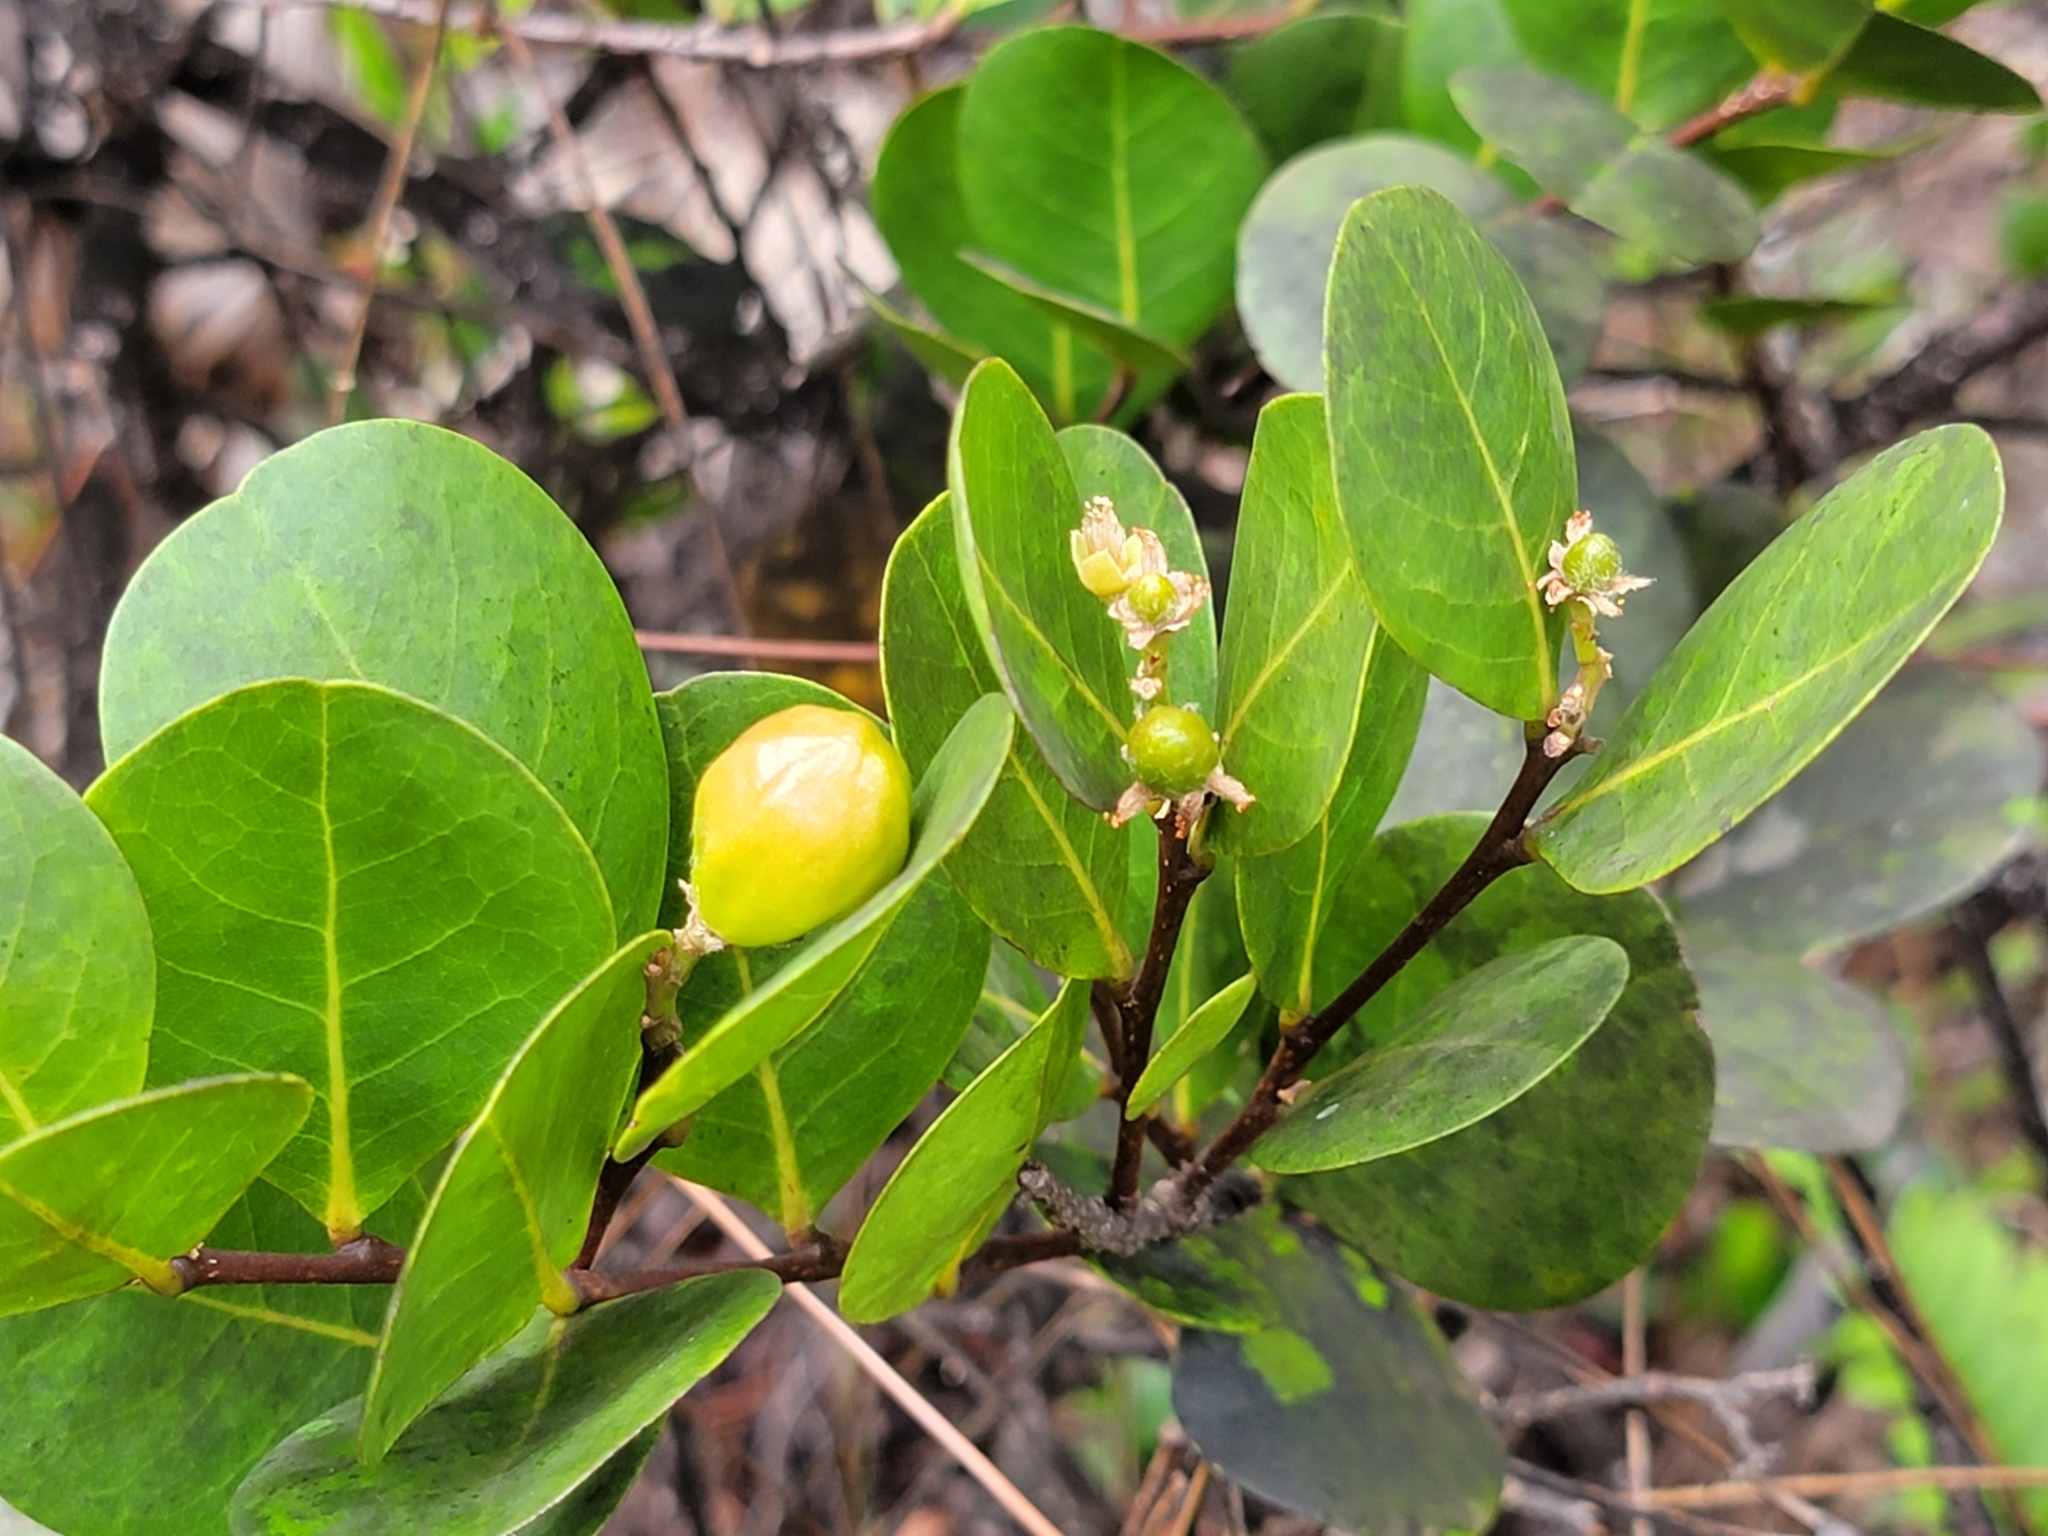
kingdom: Plantae
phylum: Tracheophyta
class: Magnoliopsida
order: Malpighiales
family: Chrysobalanaceae
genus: Chrysobalanus
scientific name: Chrysobalanus icaco
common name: Coco plum
